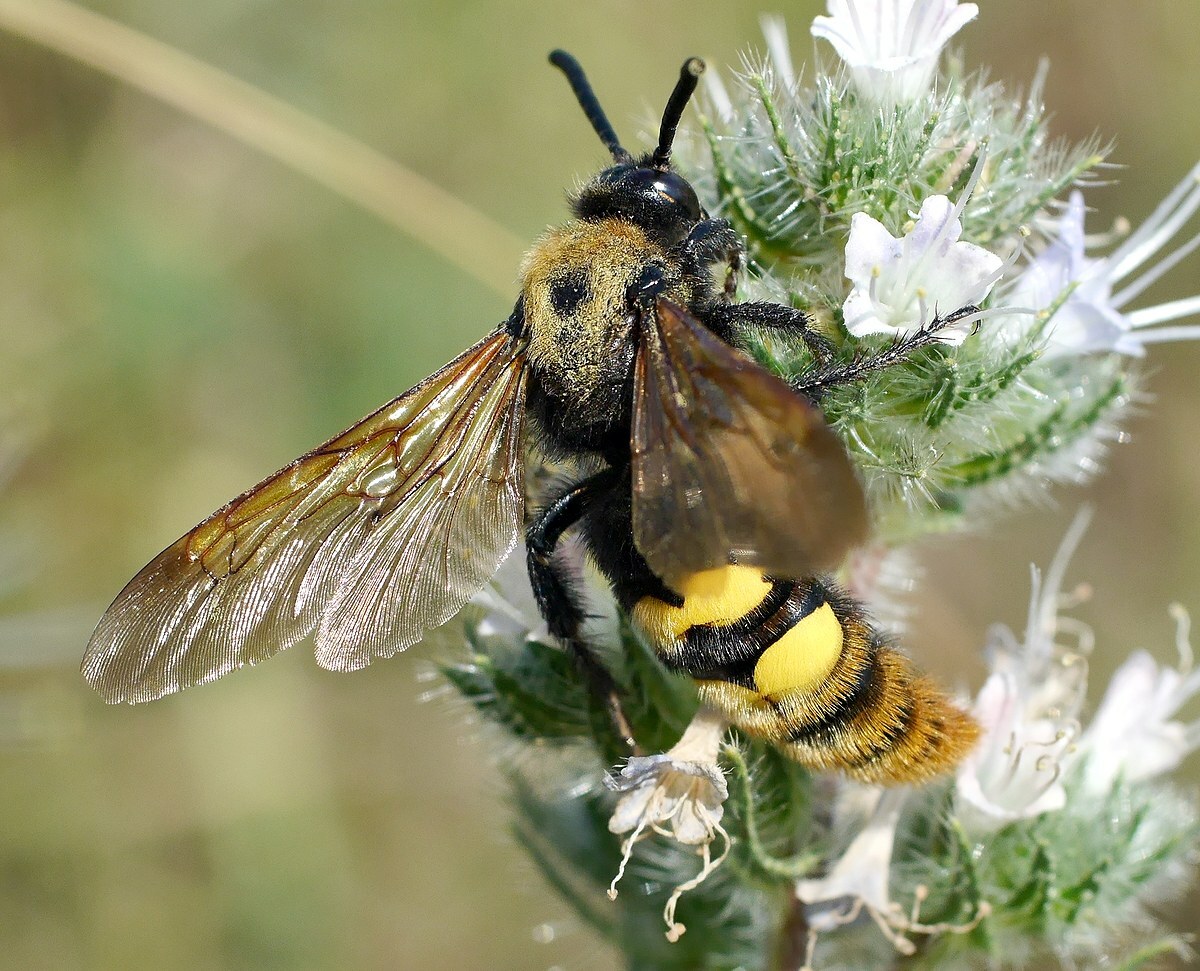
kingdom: Animalia
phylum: Arthropoda
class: Insecta
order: Hymenoptera
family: Scoliidae
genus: Megascolia
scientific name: Megascolia maculata
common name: Mammoth wasp
